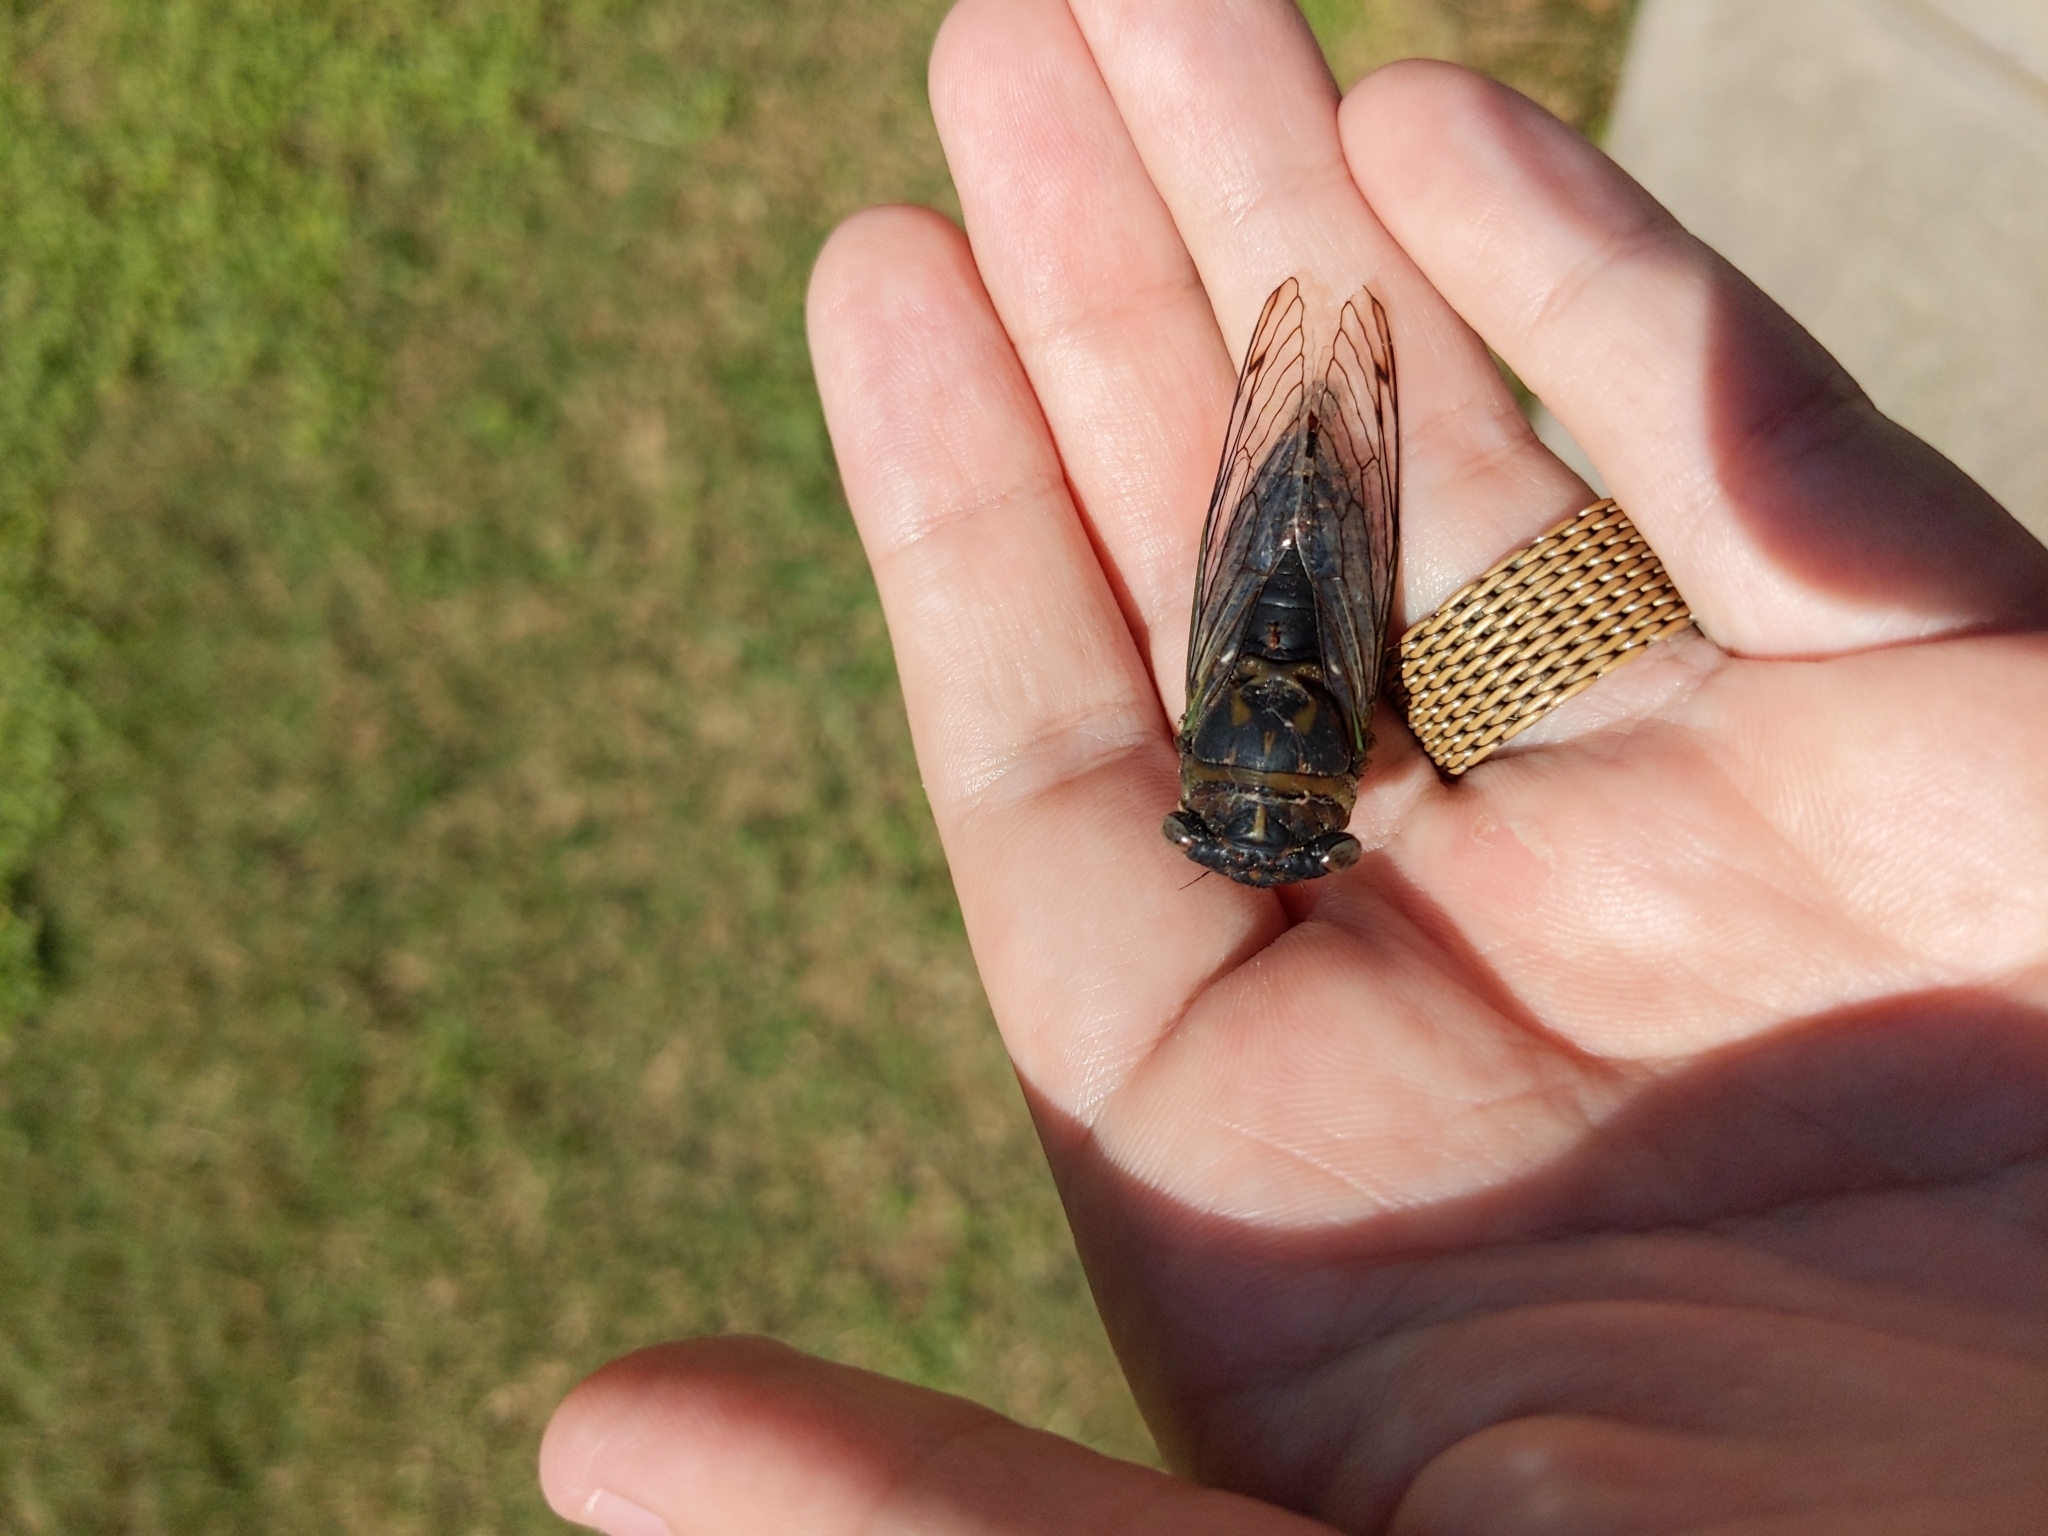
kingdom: Animalia
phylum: Arthropoda
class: Insecta
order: Hemiptera
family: Cicadidae
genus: Neotibicen
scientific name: Neotibicen davisi
